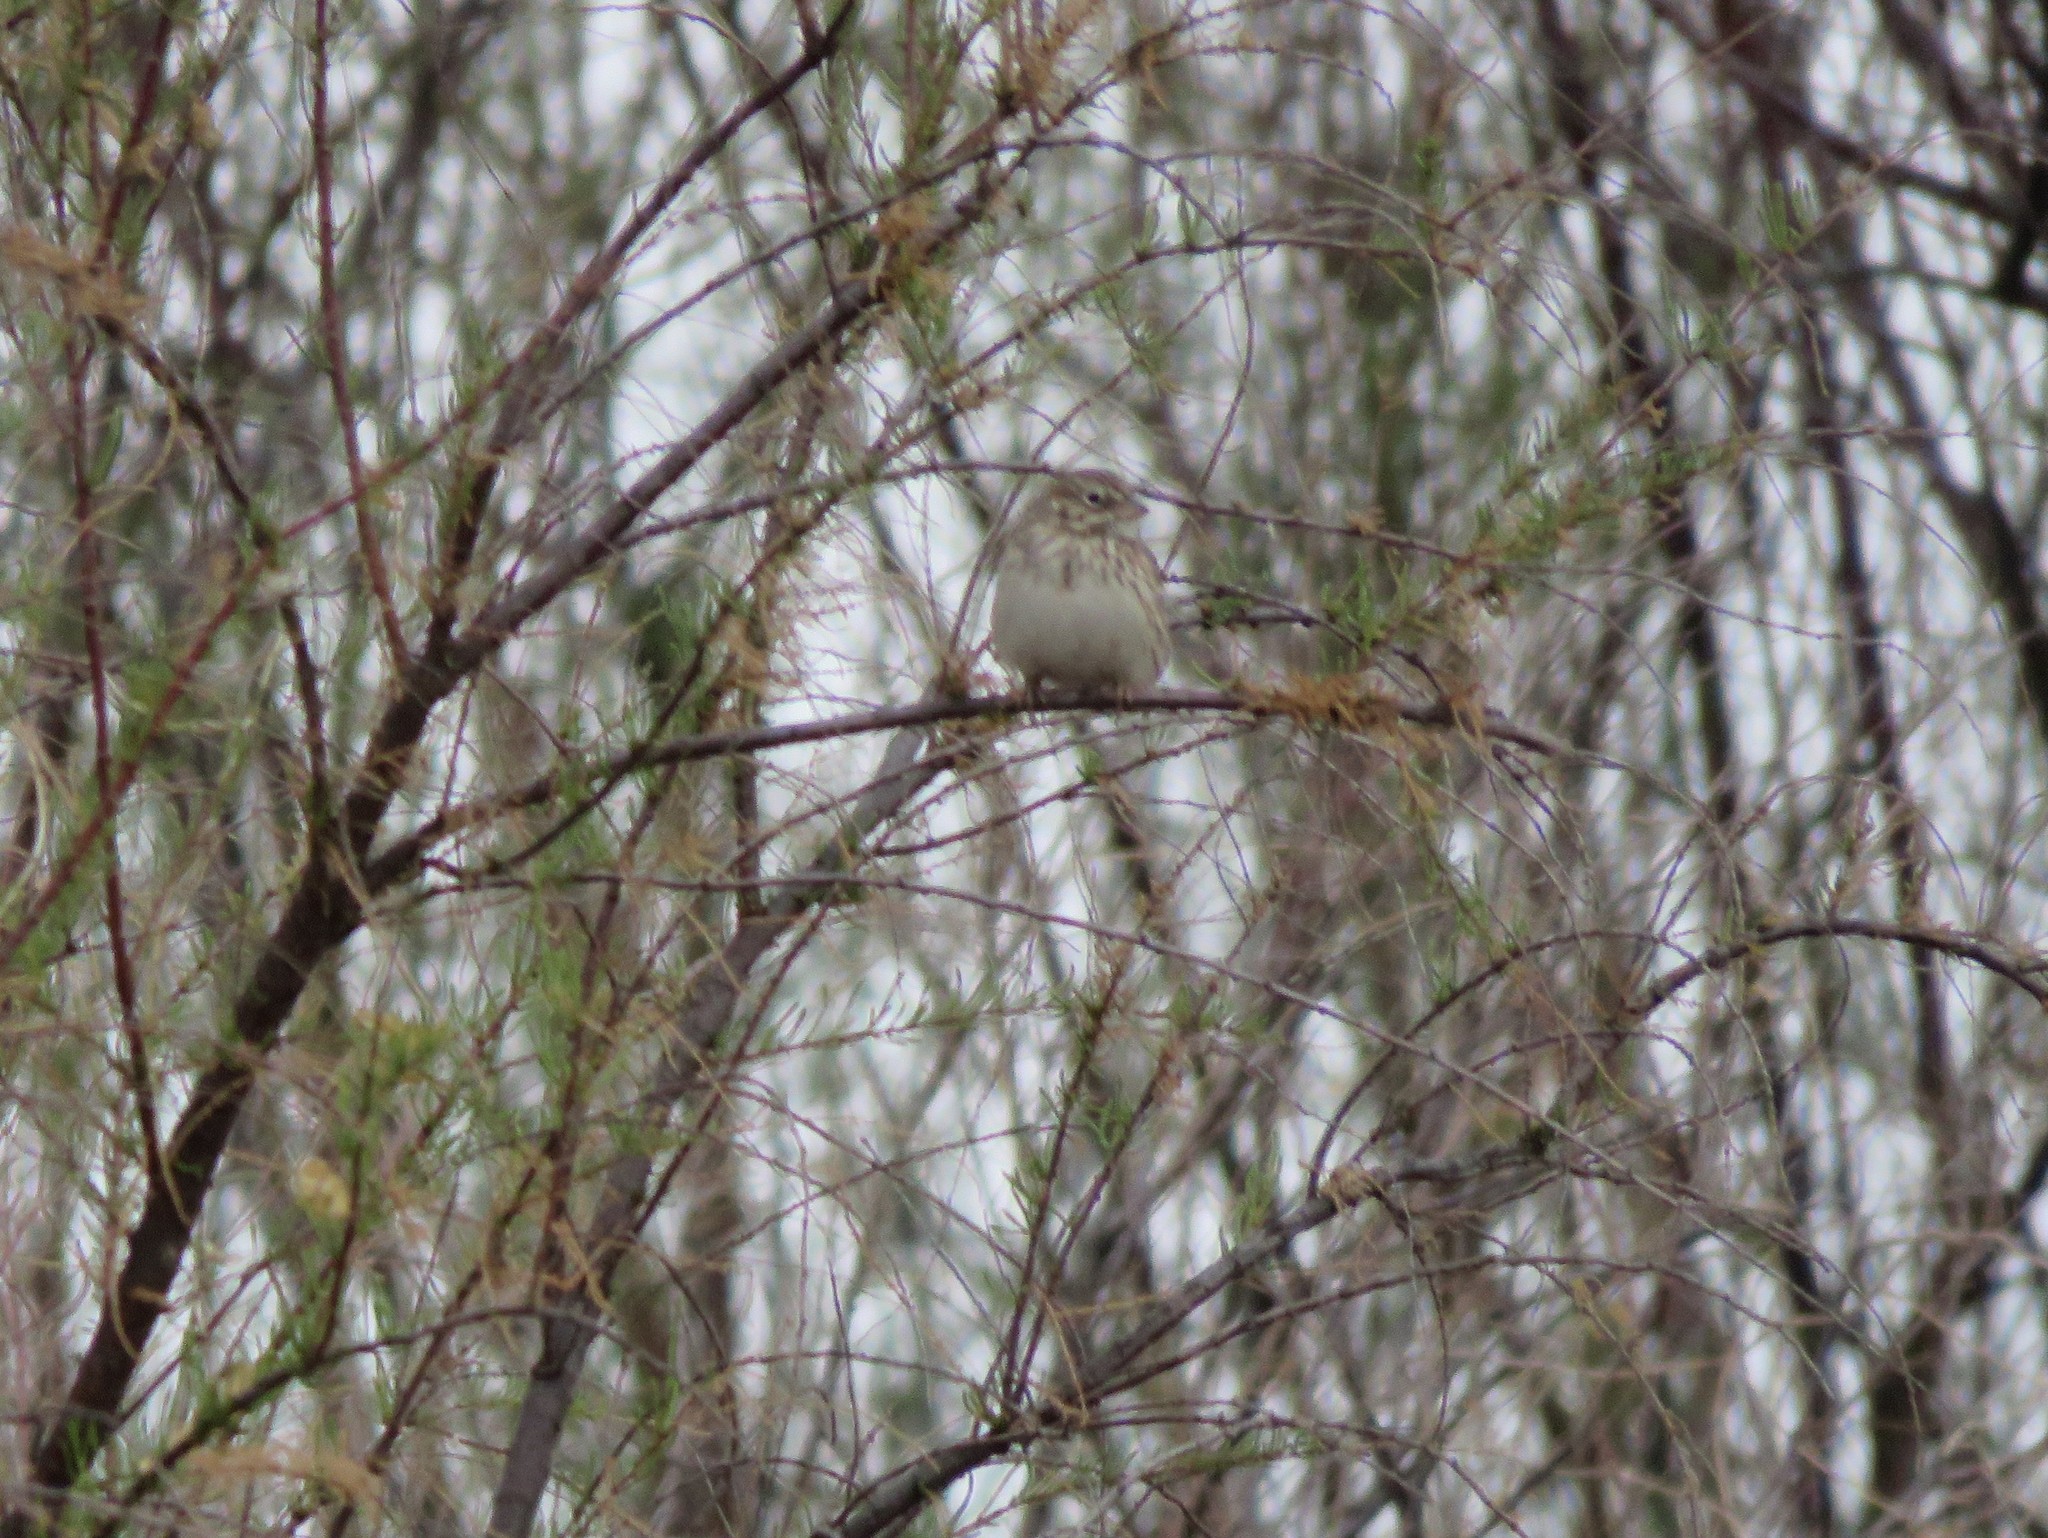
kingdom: Animalia
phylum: Chordata
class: Aves
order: Passeriformes
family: Passerellidae
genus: Pooecetes
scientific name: Pooecetes gramineus
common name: Vesper sparrow
